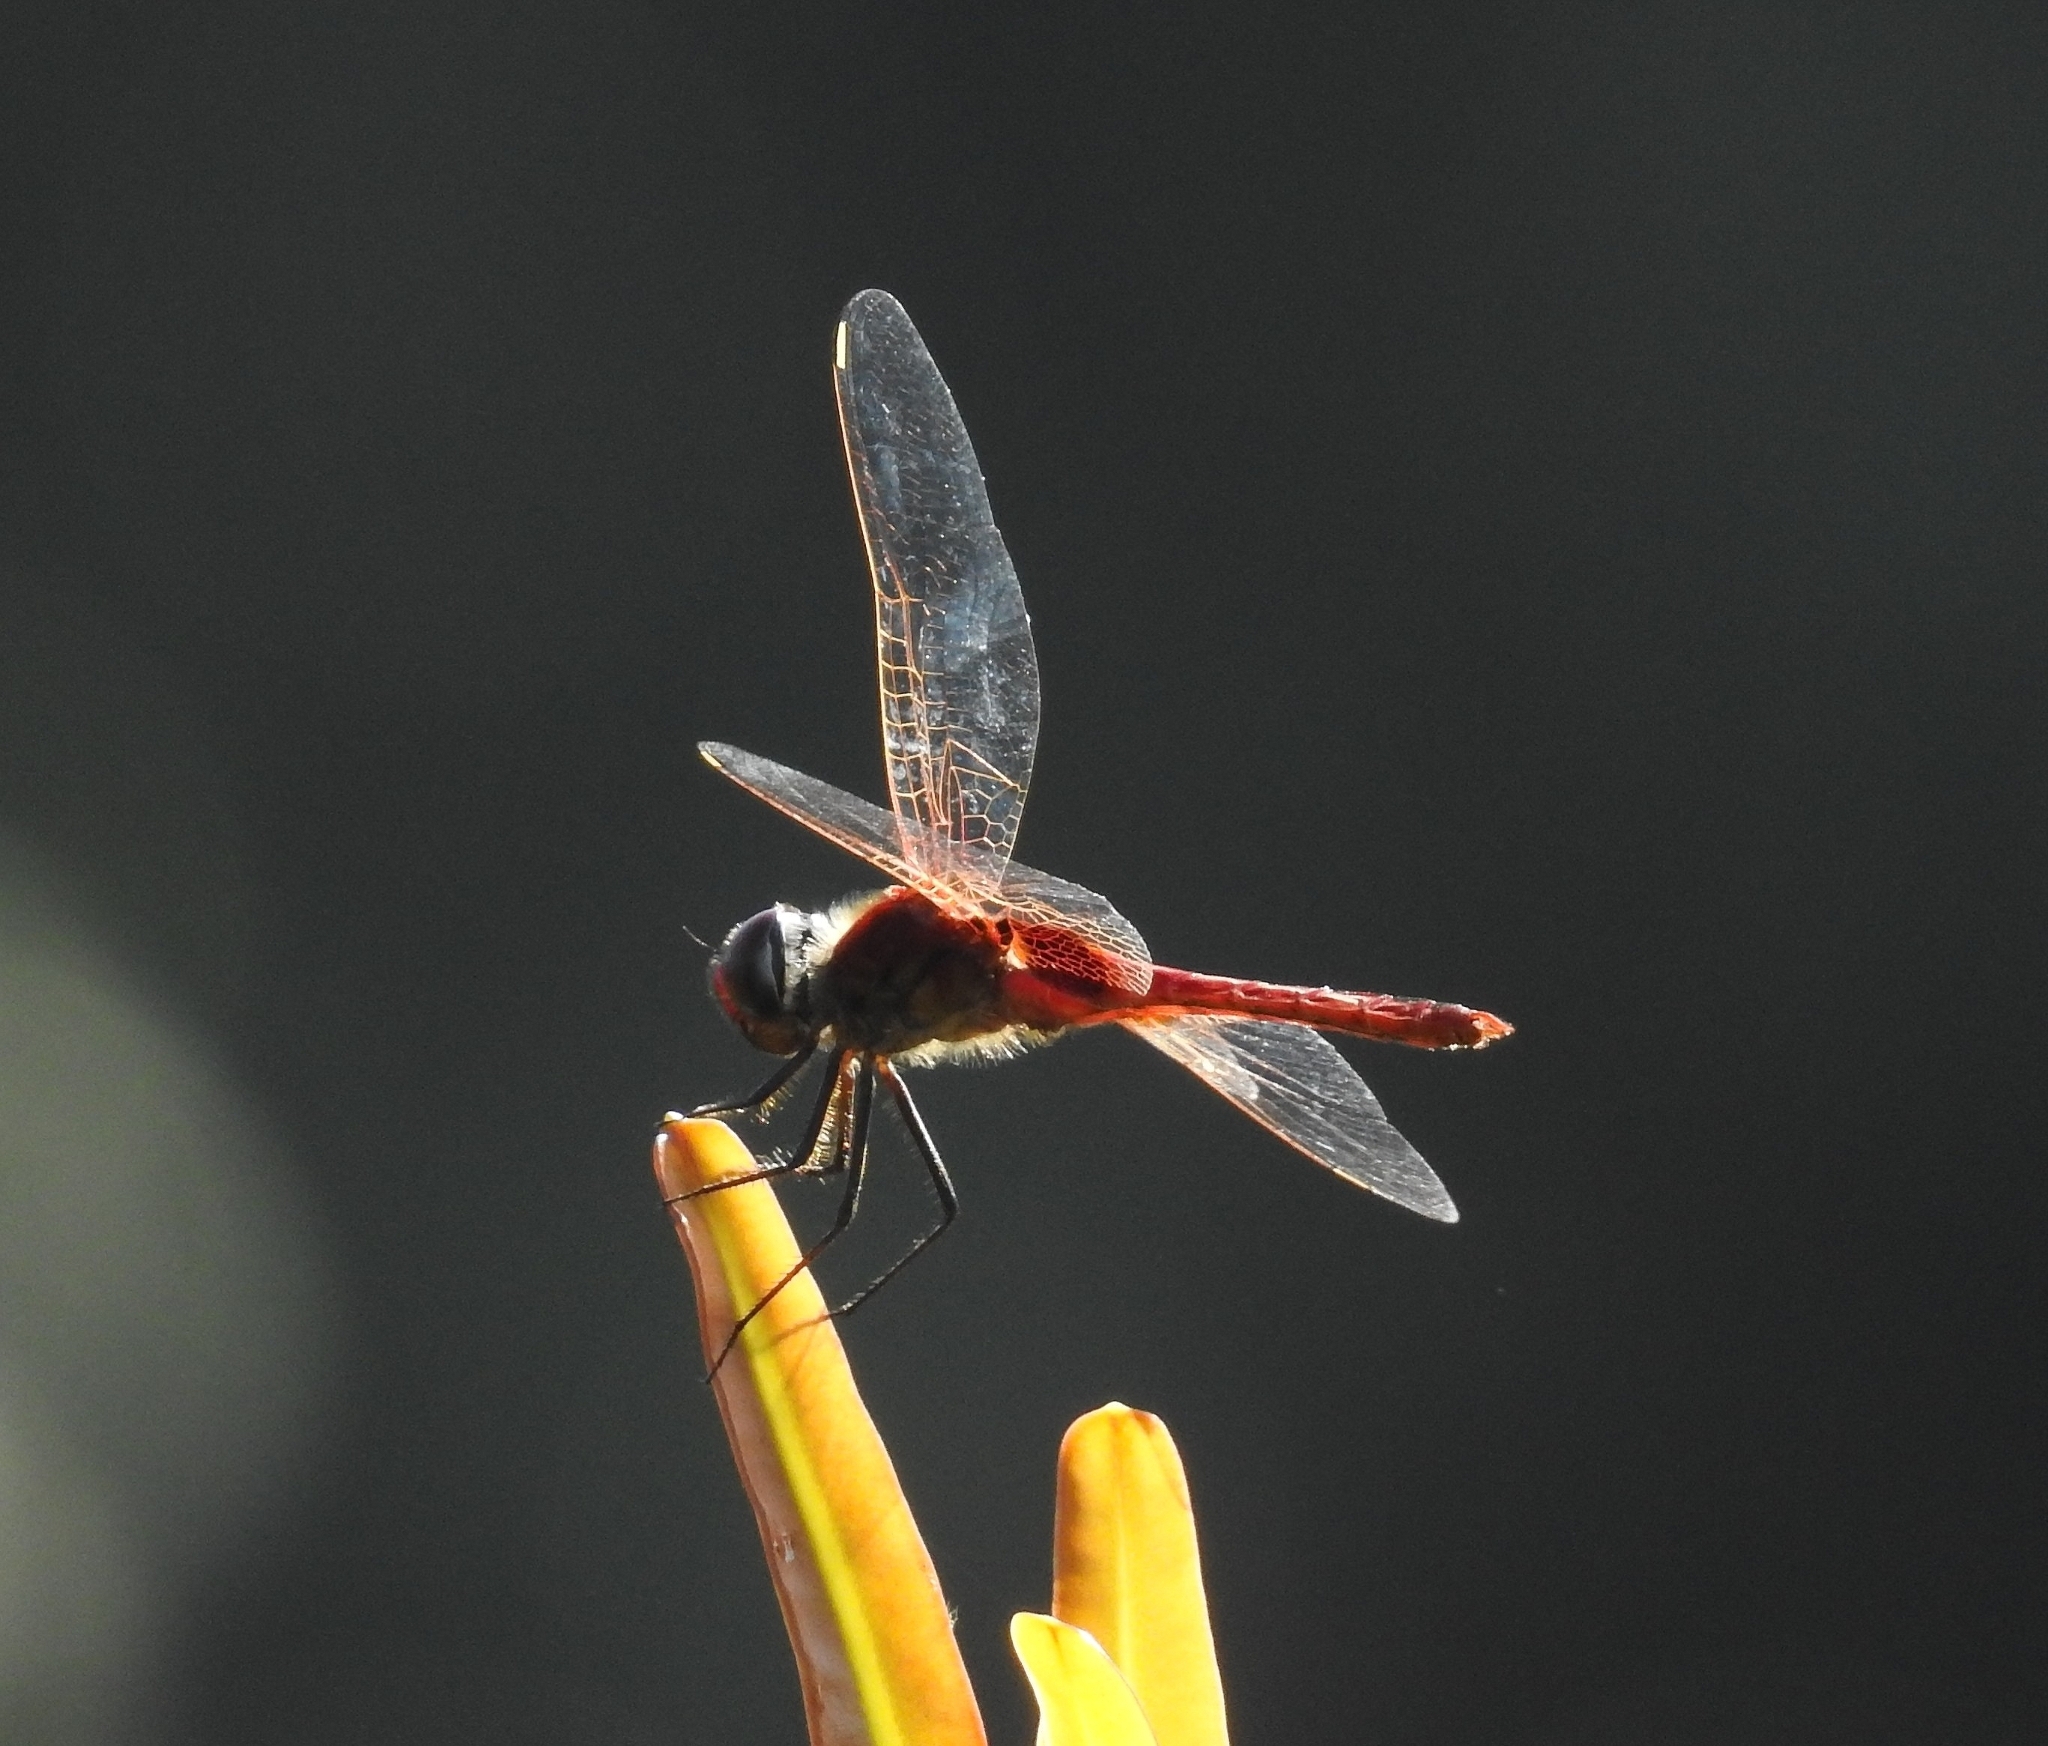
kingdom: Animalia
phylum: Arthropoda
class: Insecta
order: Odonata
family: Libellulidae
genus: Urothemis
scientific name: Urothemis signata
